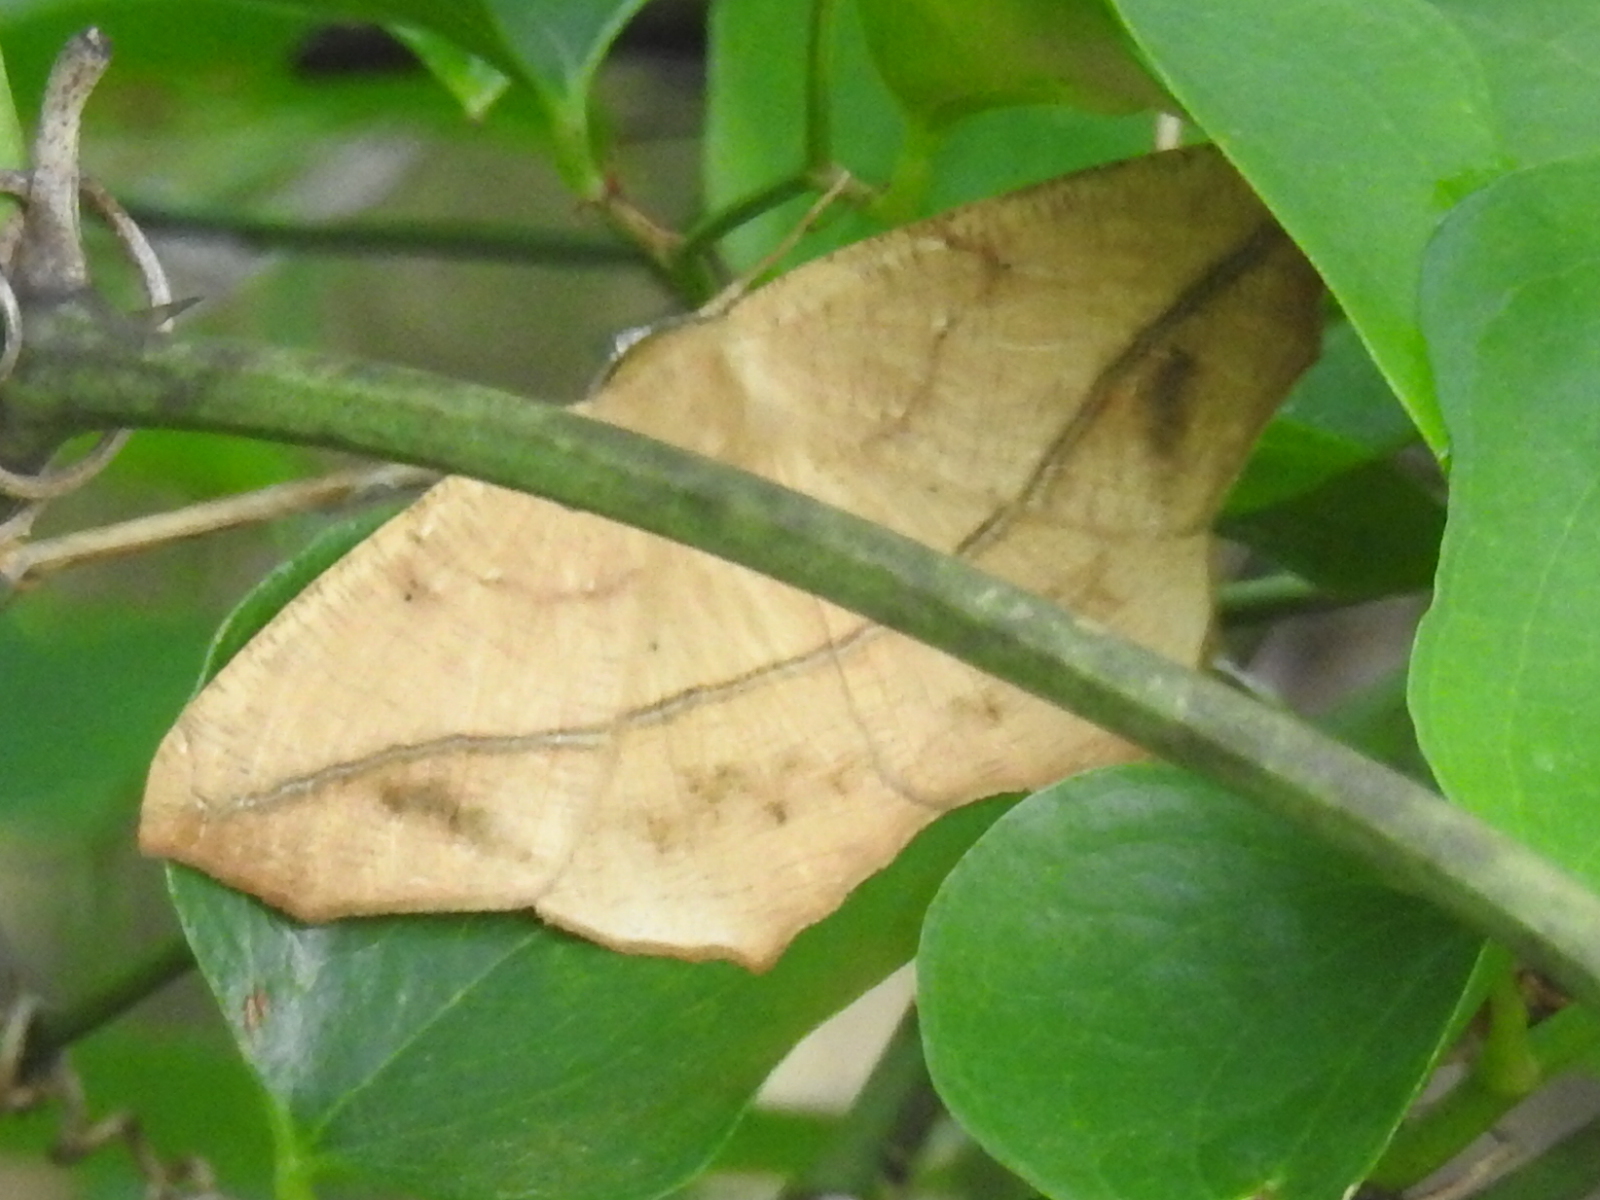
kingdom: Animalia
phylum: Arthropoda
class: Insecta
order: Lepidoptera
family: Geometridae
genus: Prochoerodes
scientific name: Prochoerodes lineola
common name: Large maple spanworm
